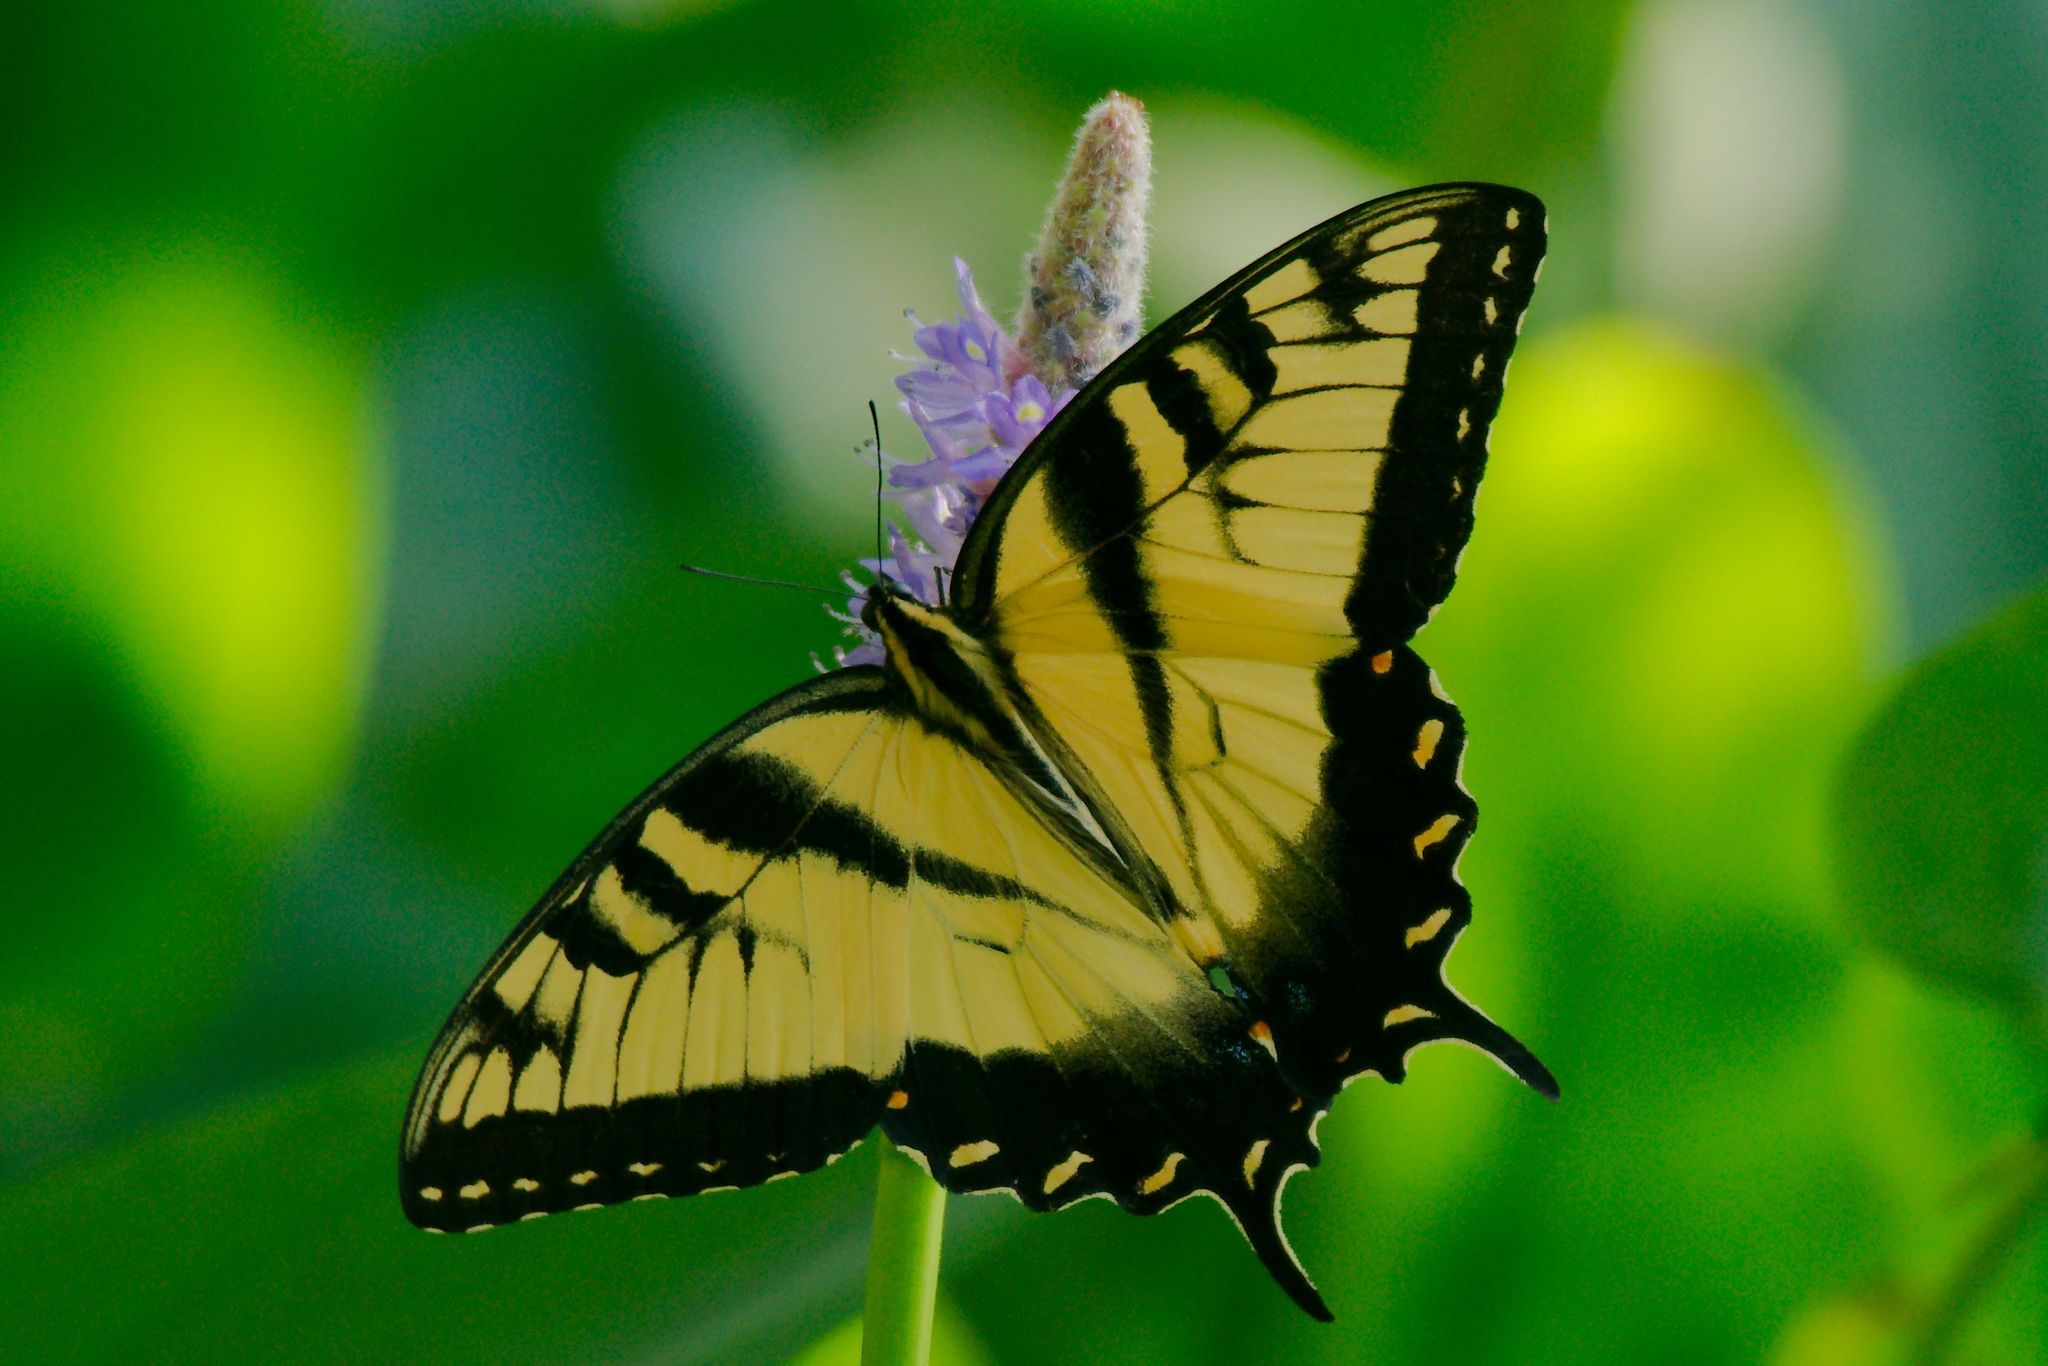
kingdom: Animalia
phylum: Arthropoda
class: Insecta
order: Lepidoptera
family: Papilionidae
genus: Papilio
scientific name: Papilio glaucus
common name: Tiger swallowtail
